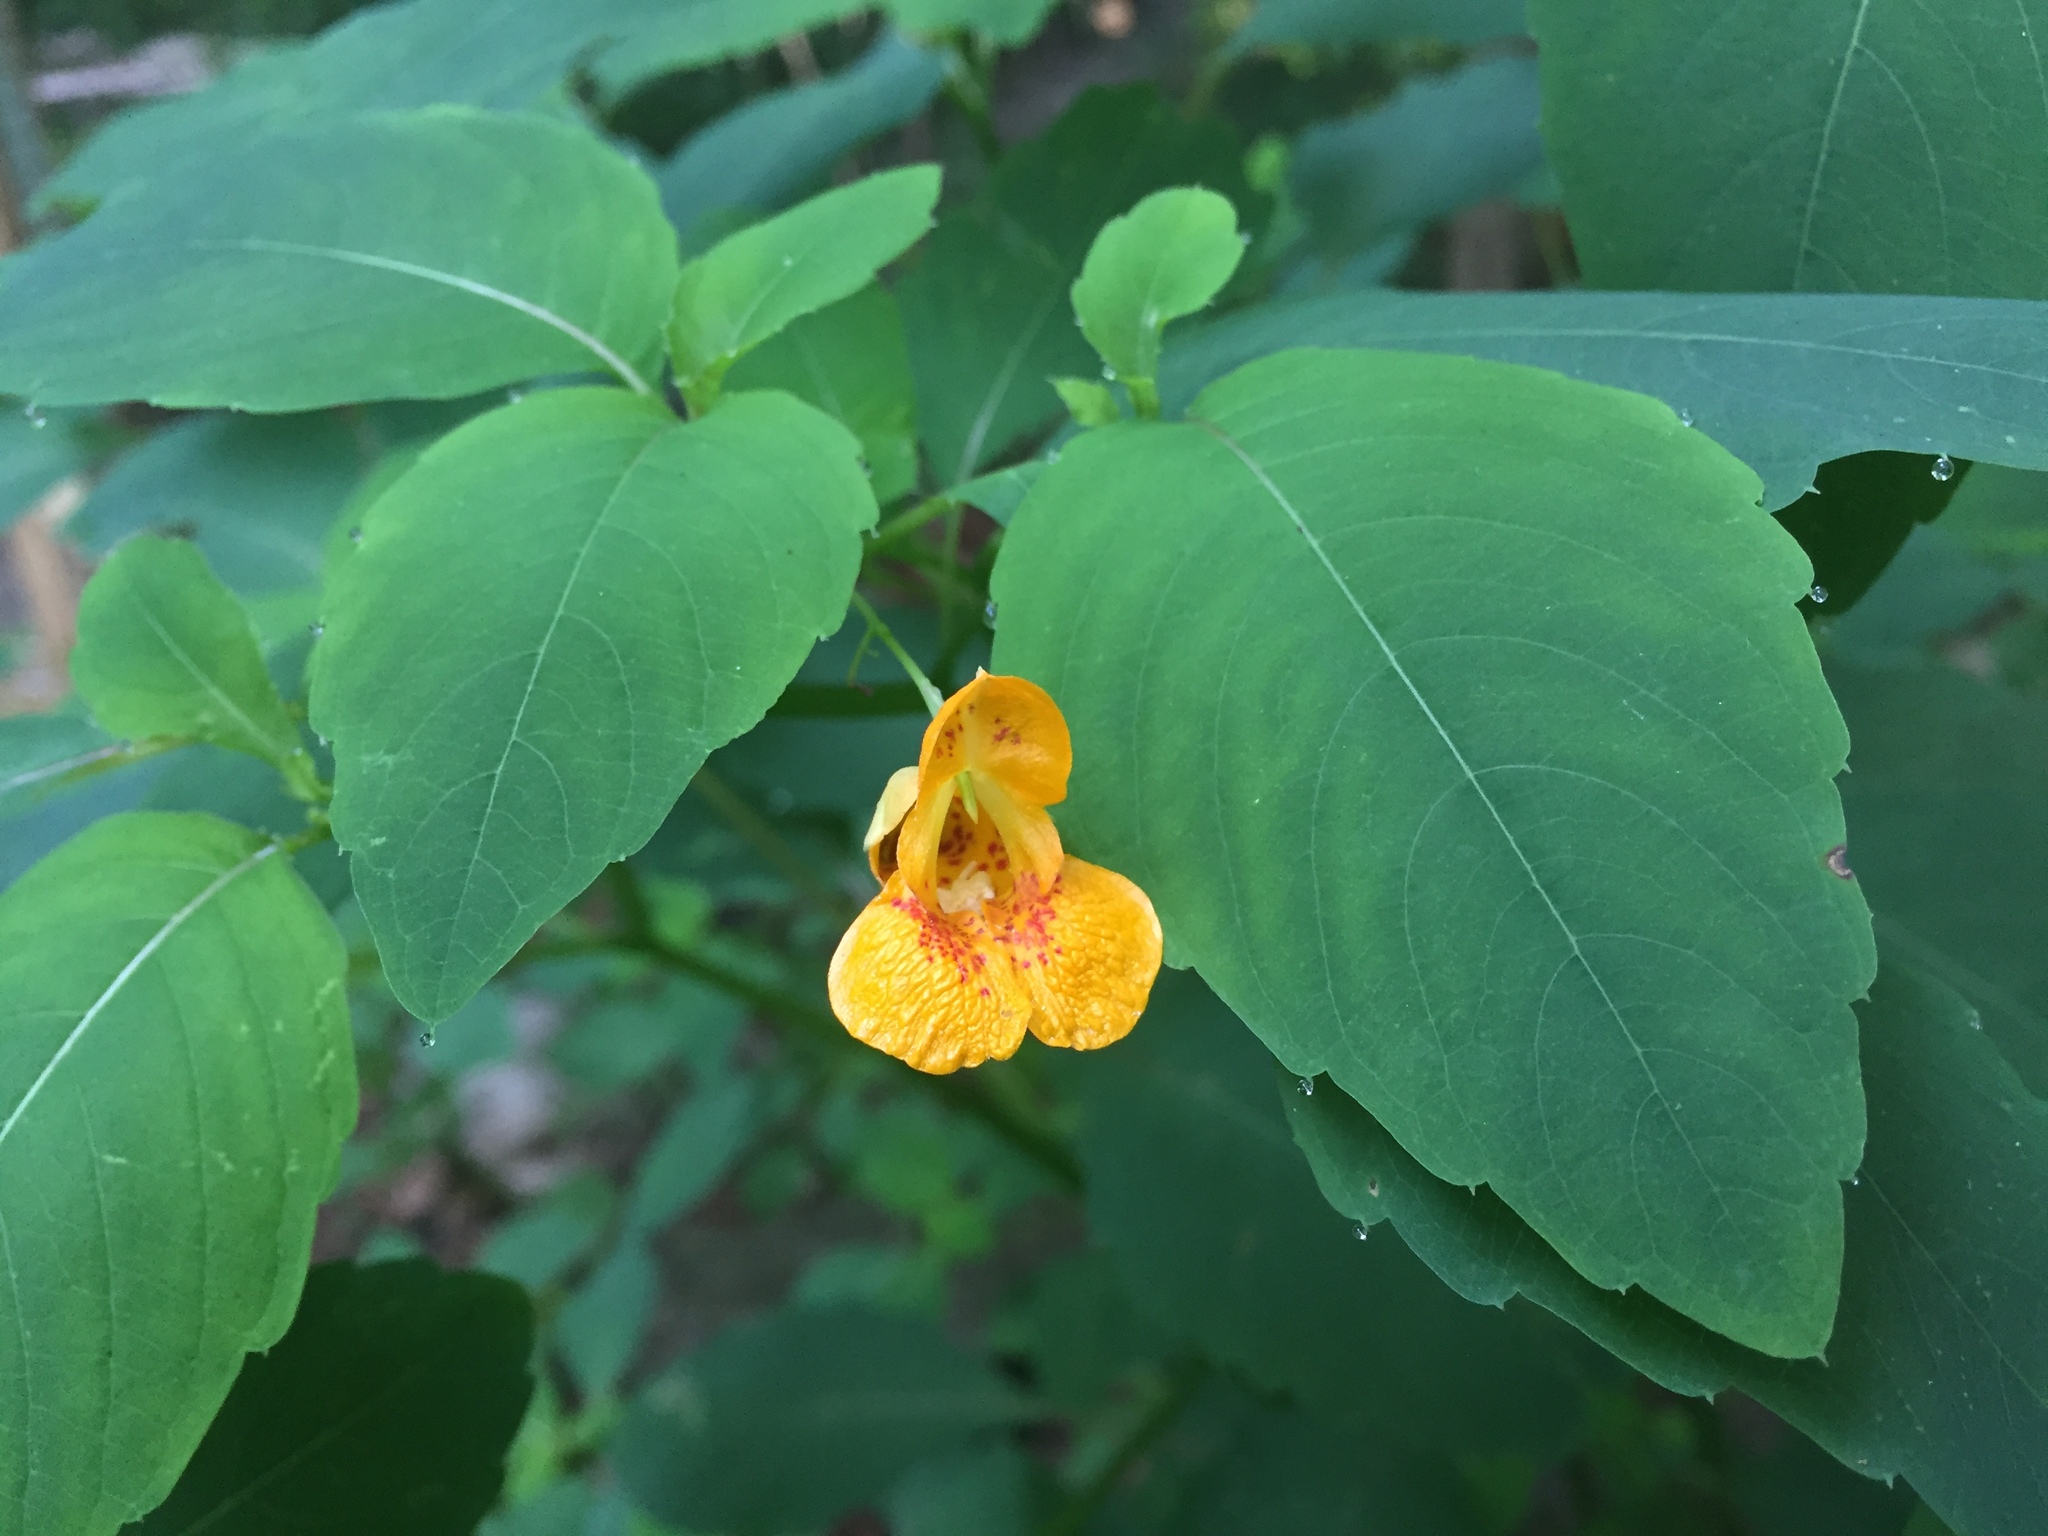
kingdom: Plantae
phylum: Tracheophyta
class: Magnoliopsida
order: Ericales
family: Balsaminaceae
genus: Impatiens
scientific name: Impatiens capensis
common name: Orange balsam
